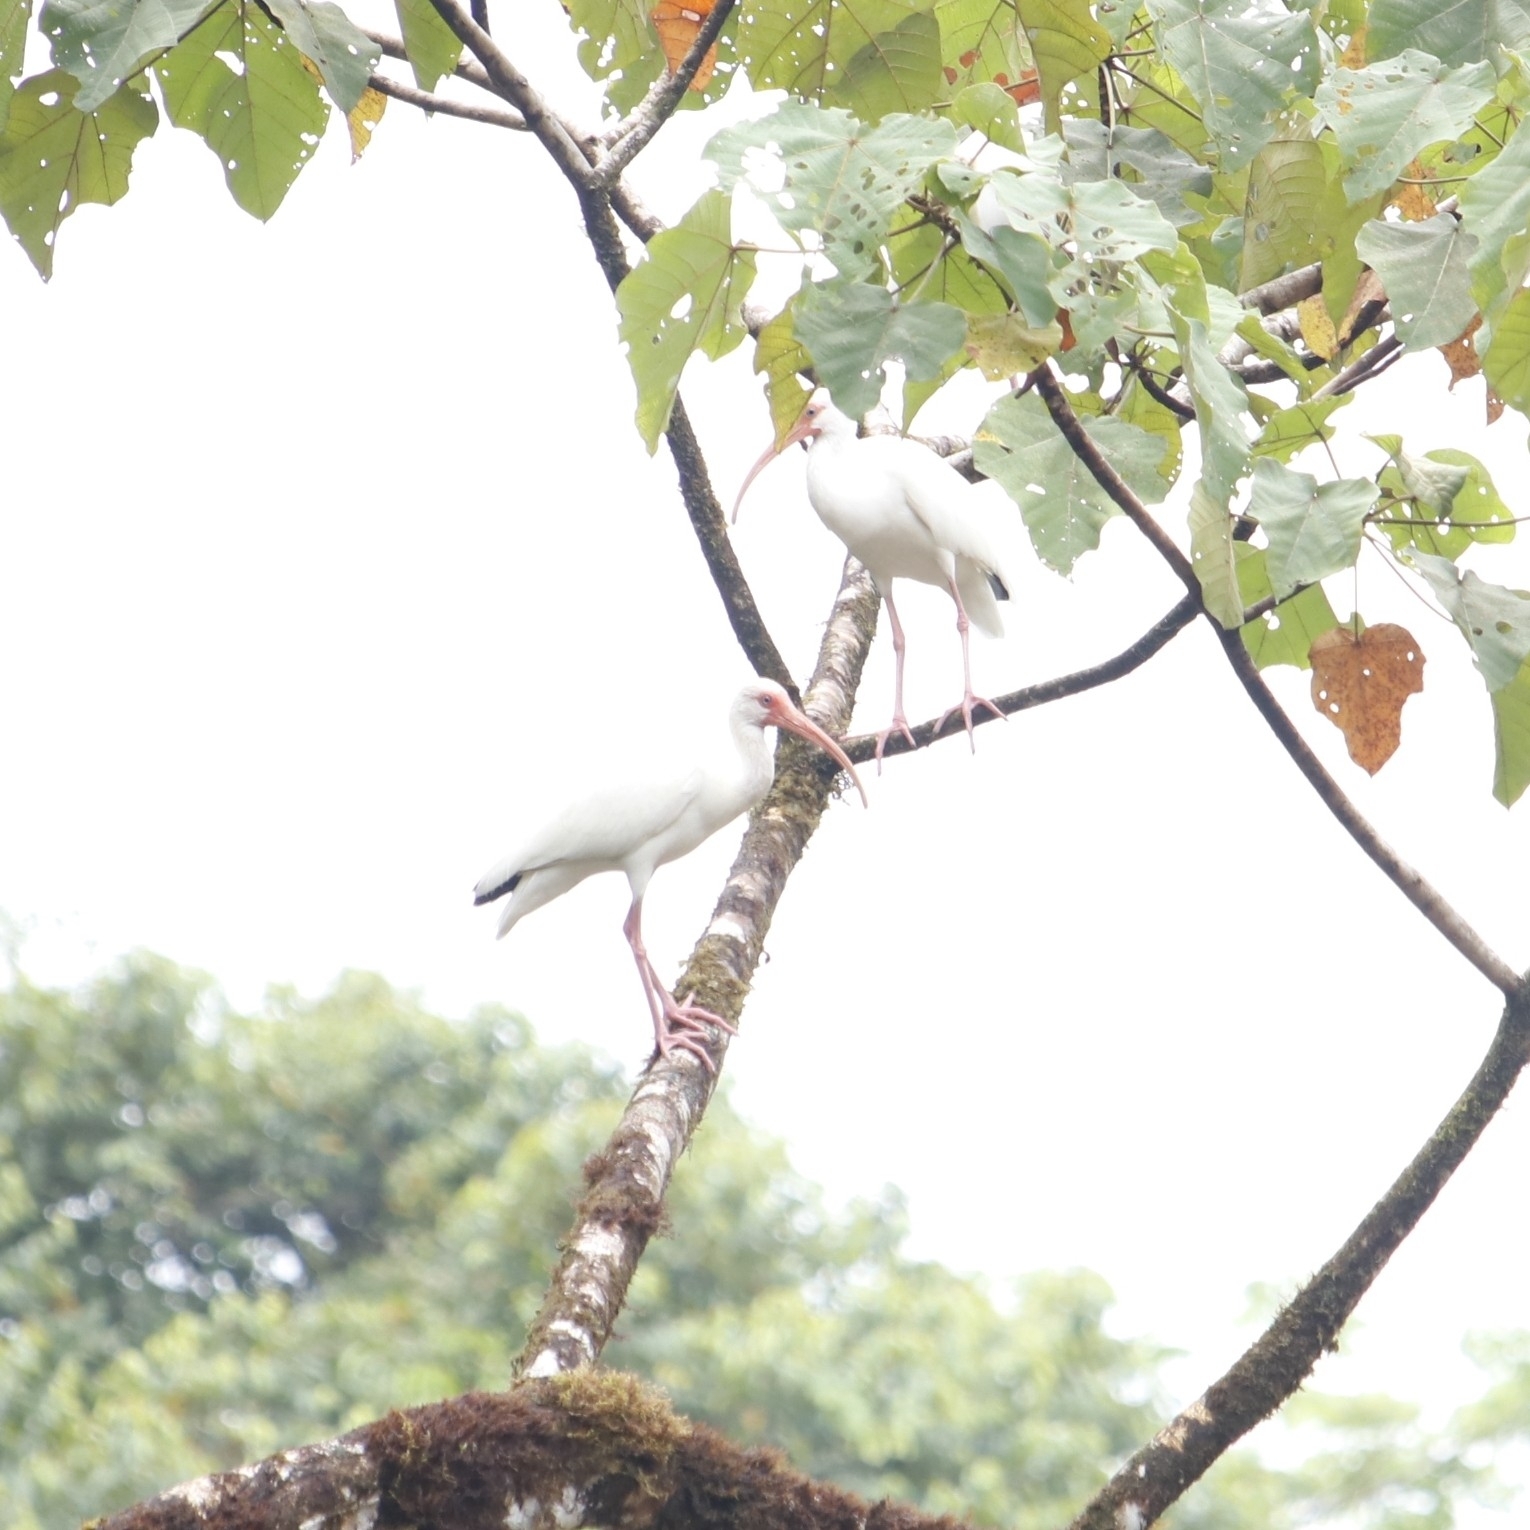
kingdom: Animalia
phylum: Chordata
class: Aves
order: Pelecaniformes
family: Threskiornithidae
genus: Eudocimus
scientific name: Eudocimus albus
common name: White ibis
